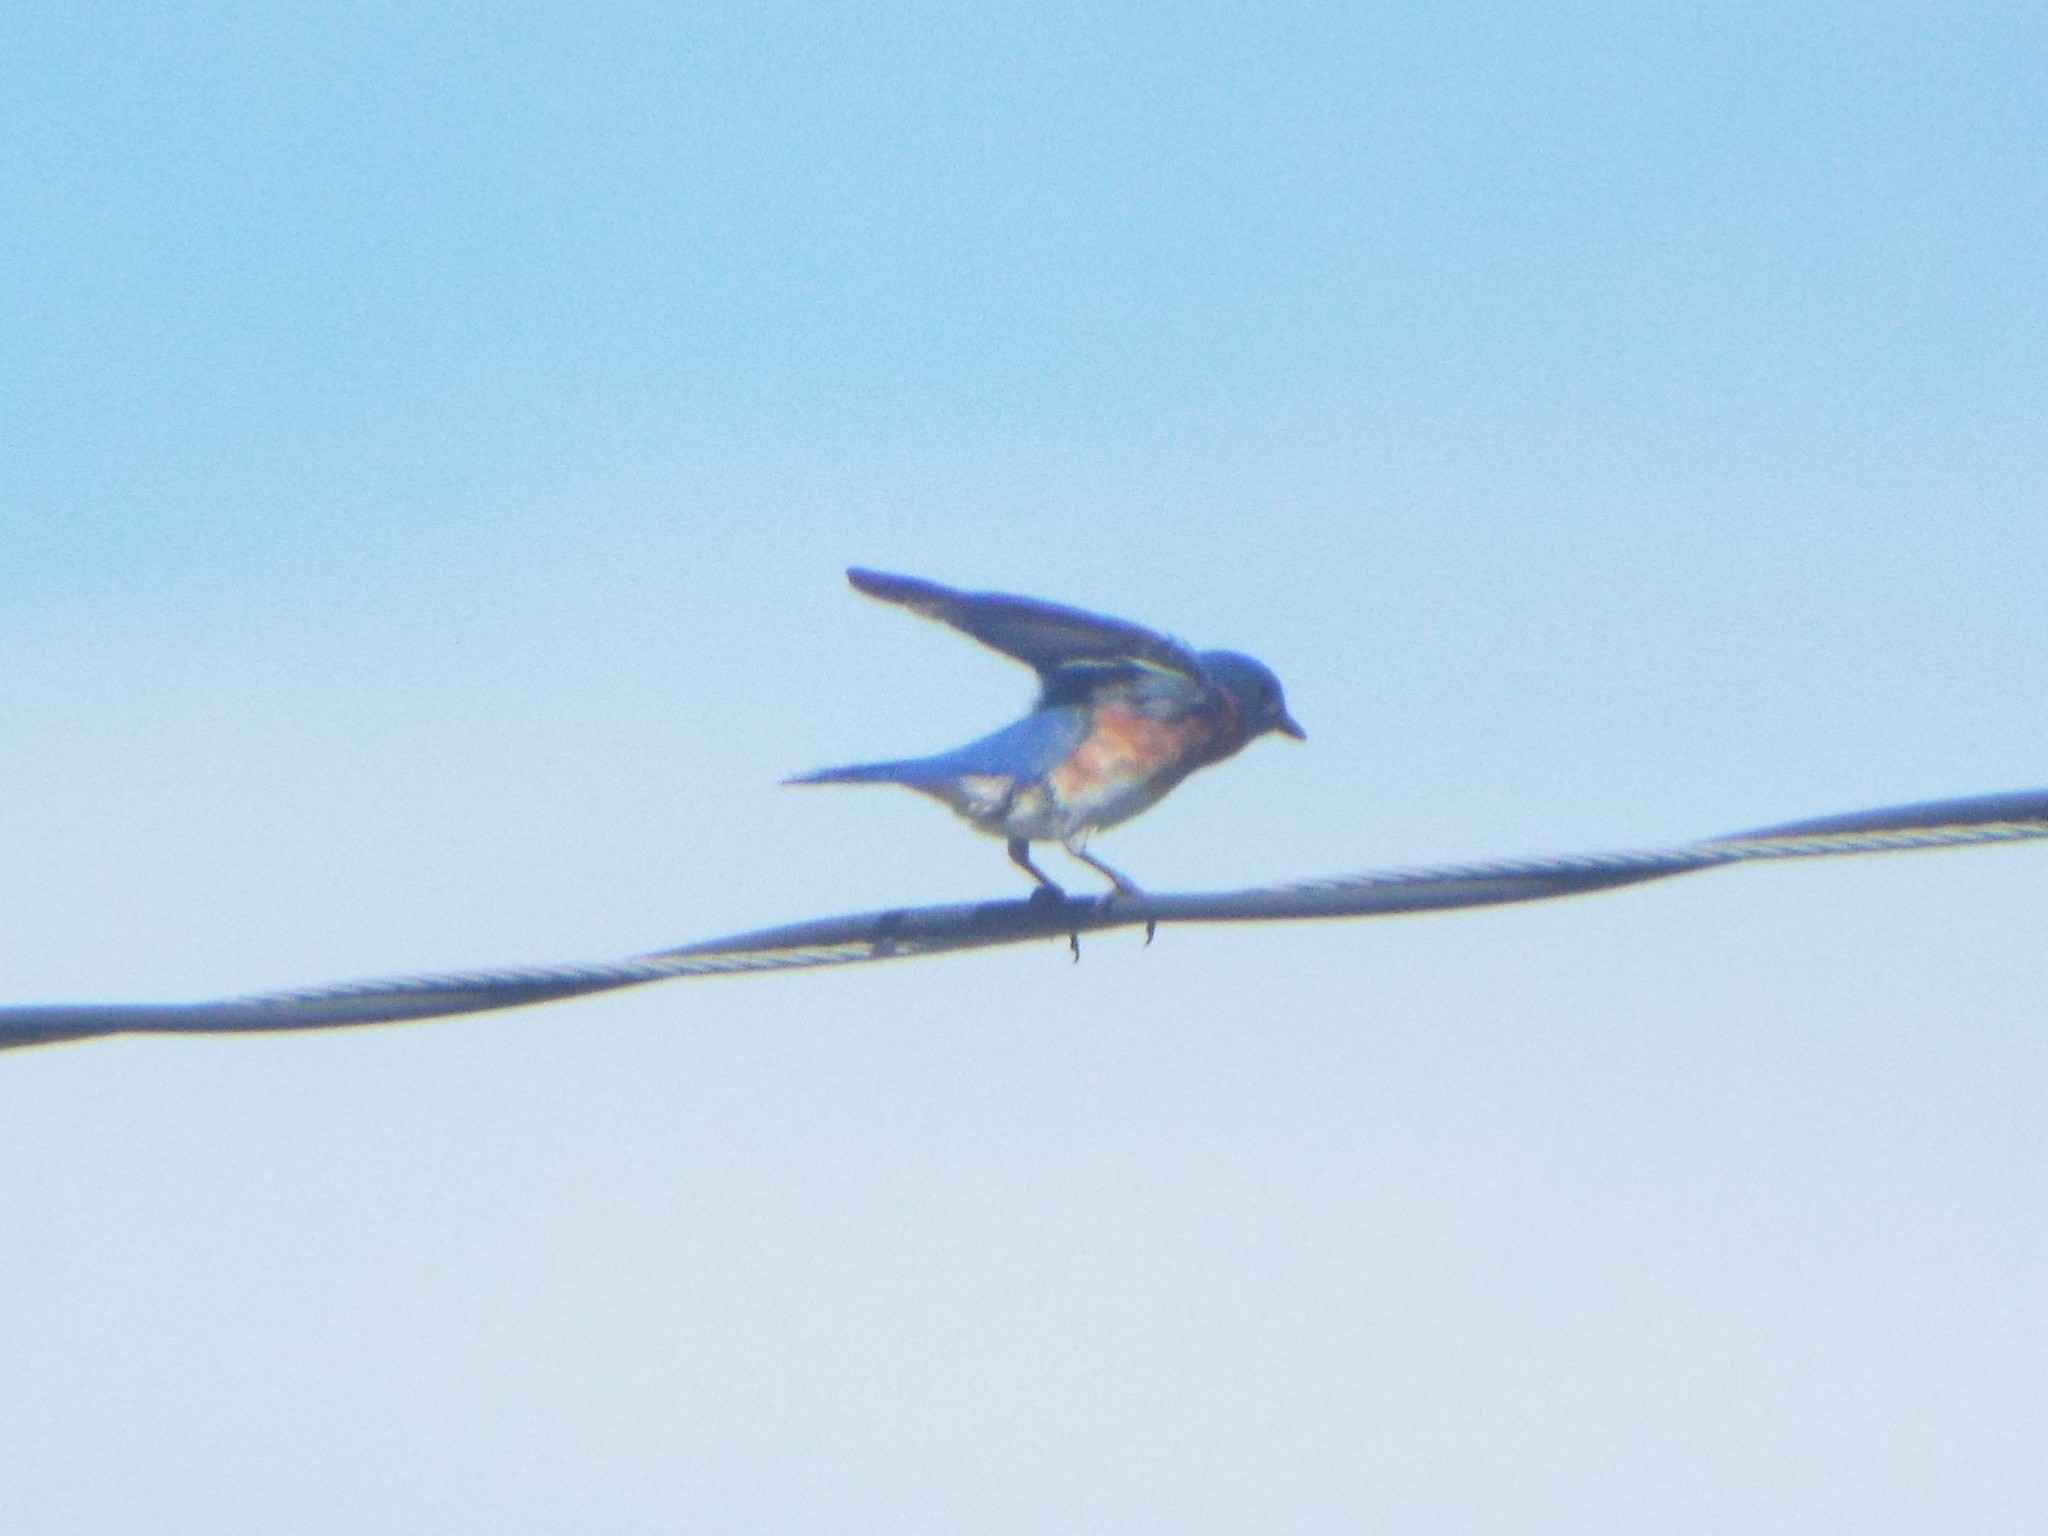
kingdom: Animalia
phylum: Chordata
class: Aves
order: Passeriformes
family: Turdidae
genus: Sialia
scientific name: Sialia sialis
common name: Eastern bluebird
